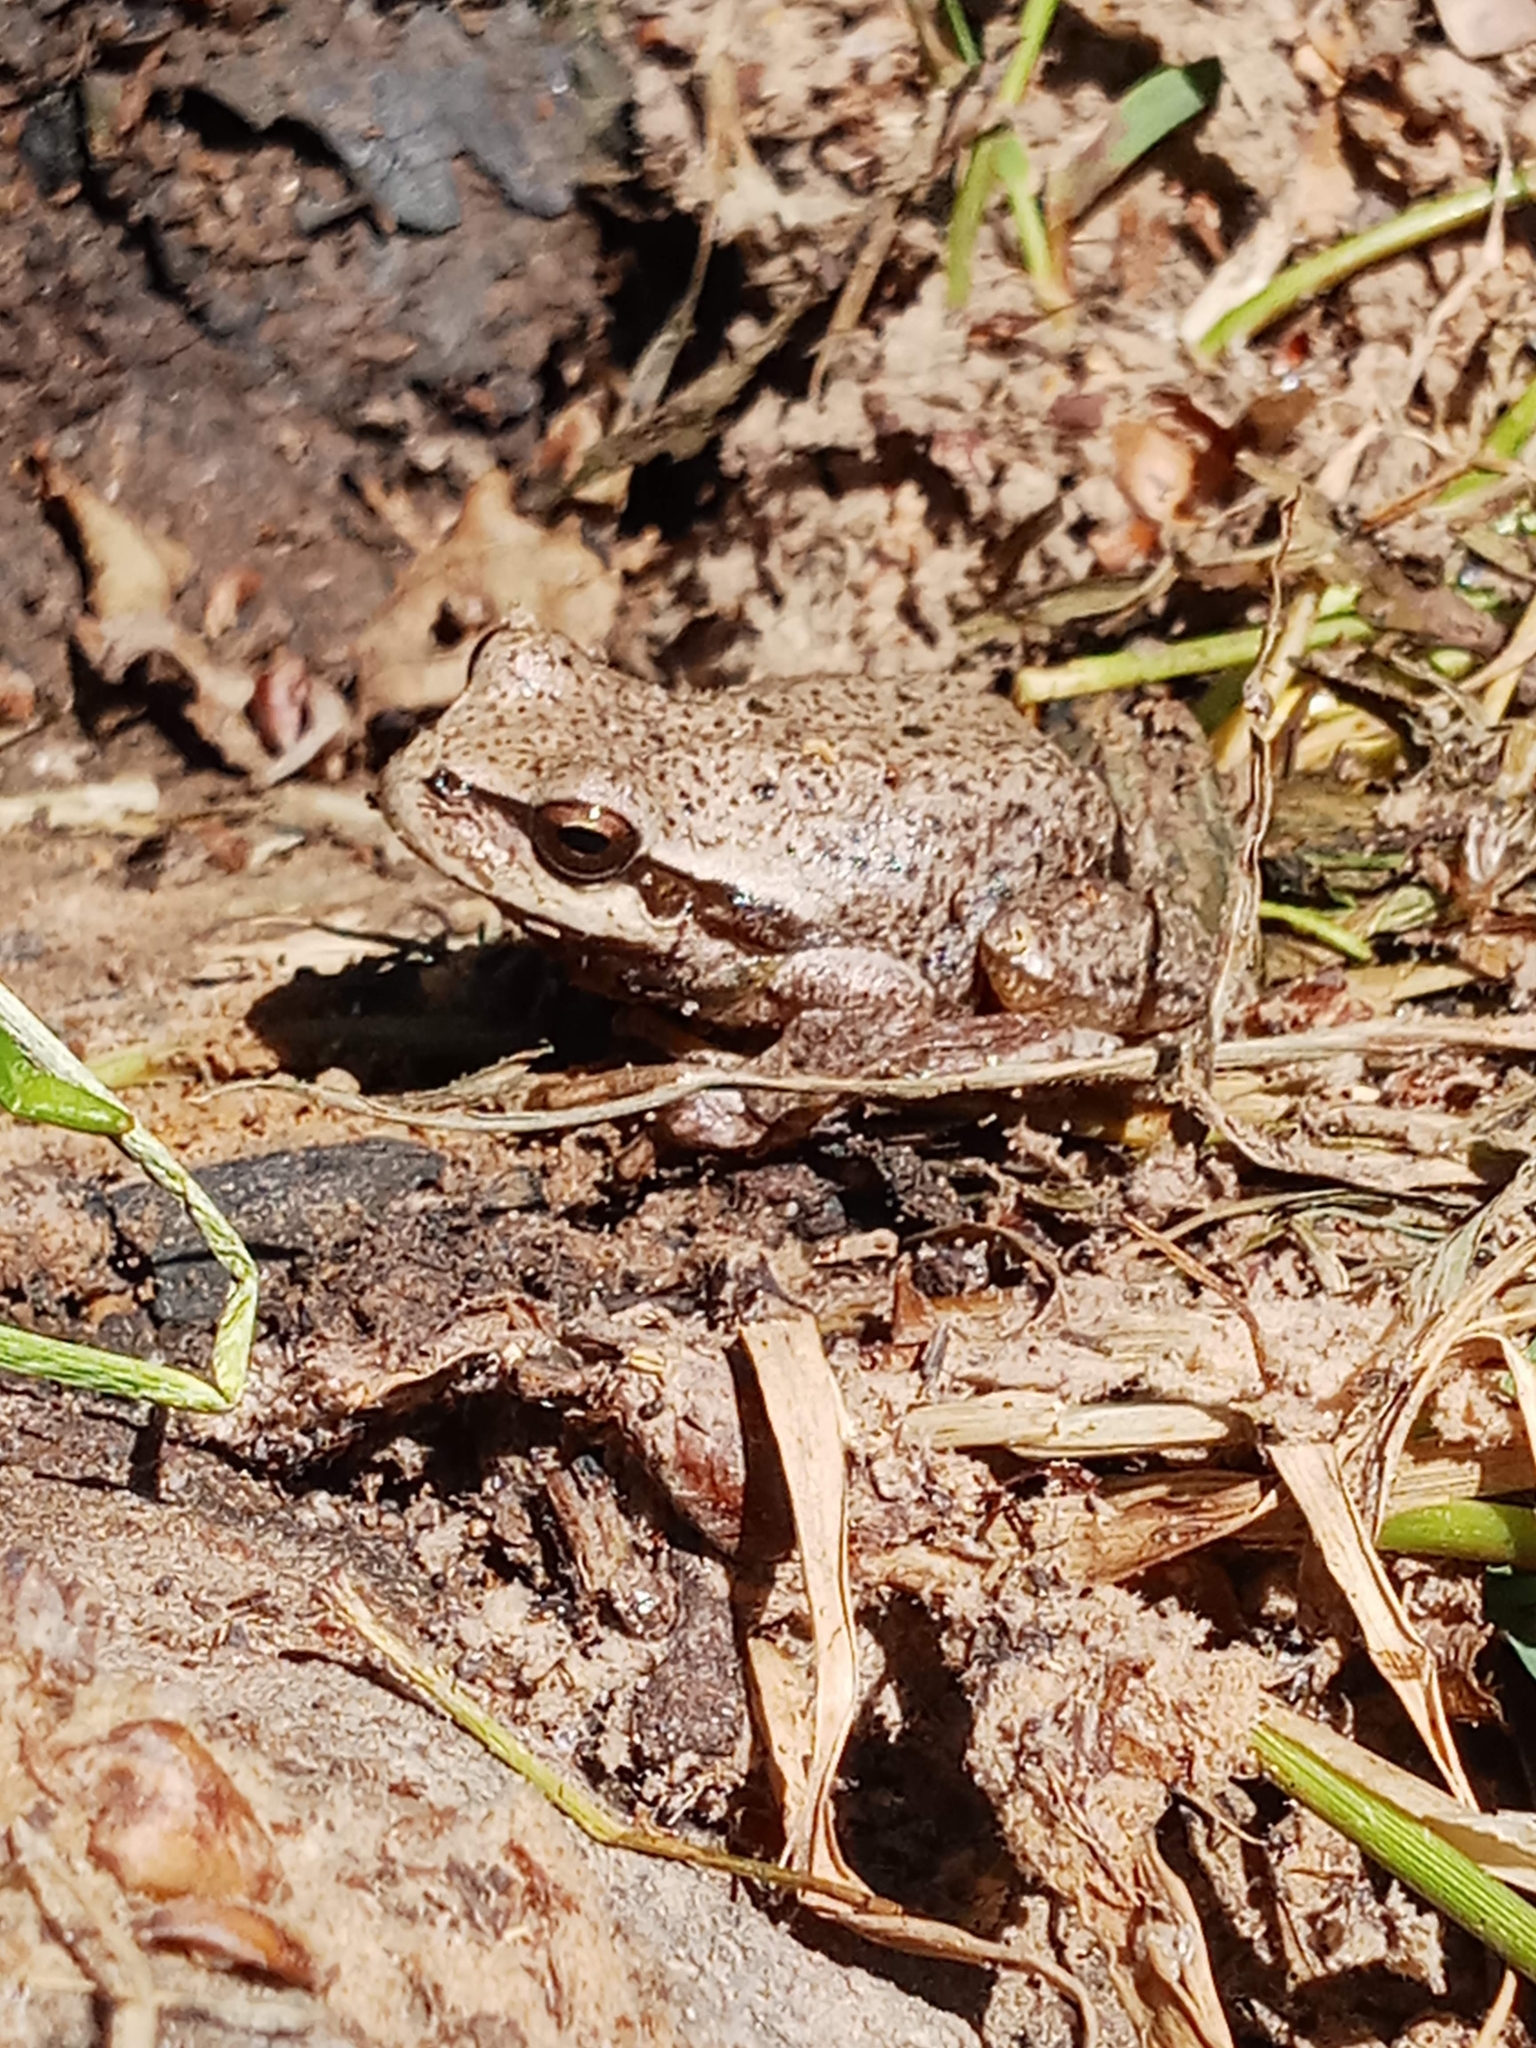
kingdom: Animalia
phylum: Chordata
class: Amphibia
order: Anura
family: Hylidae
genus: Hyla
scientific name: Hyla meridionalis
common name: Stripeless tree frog
